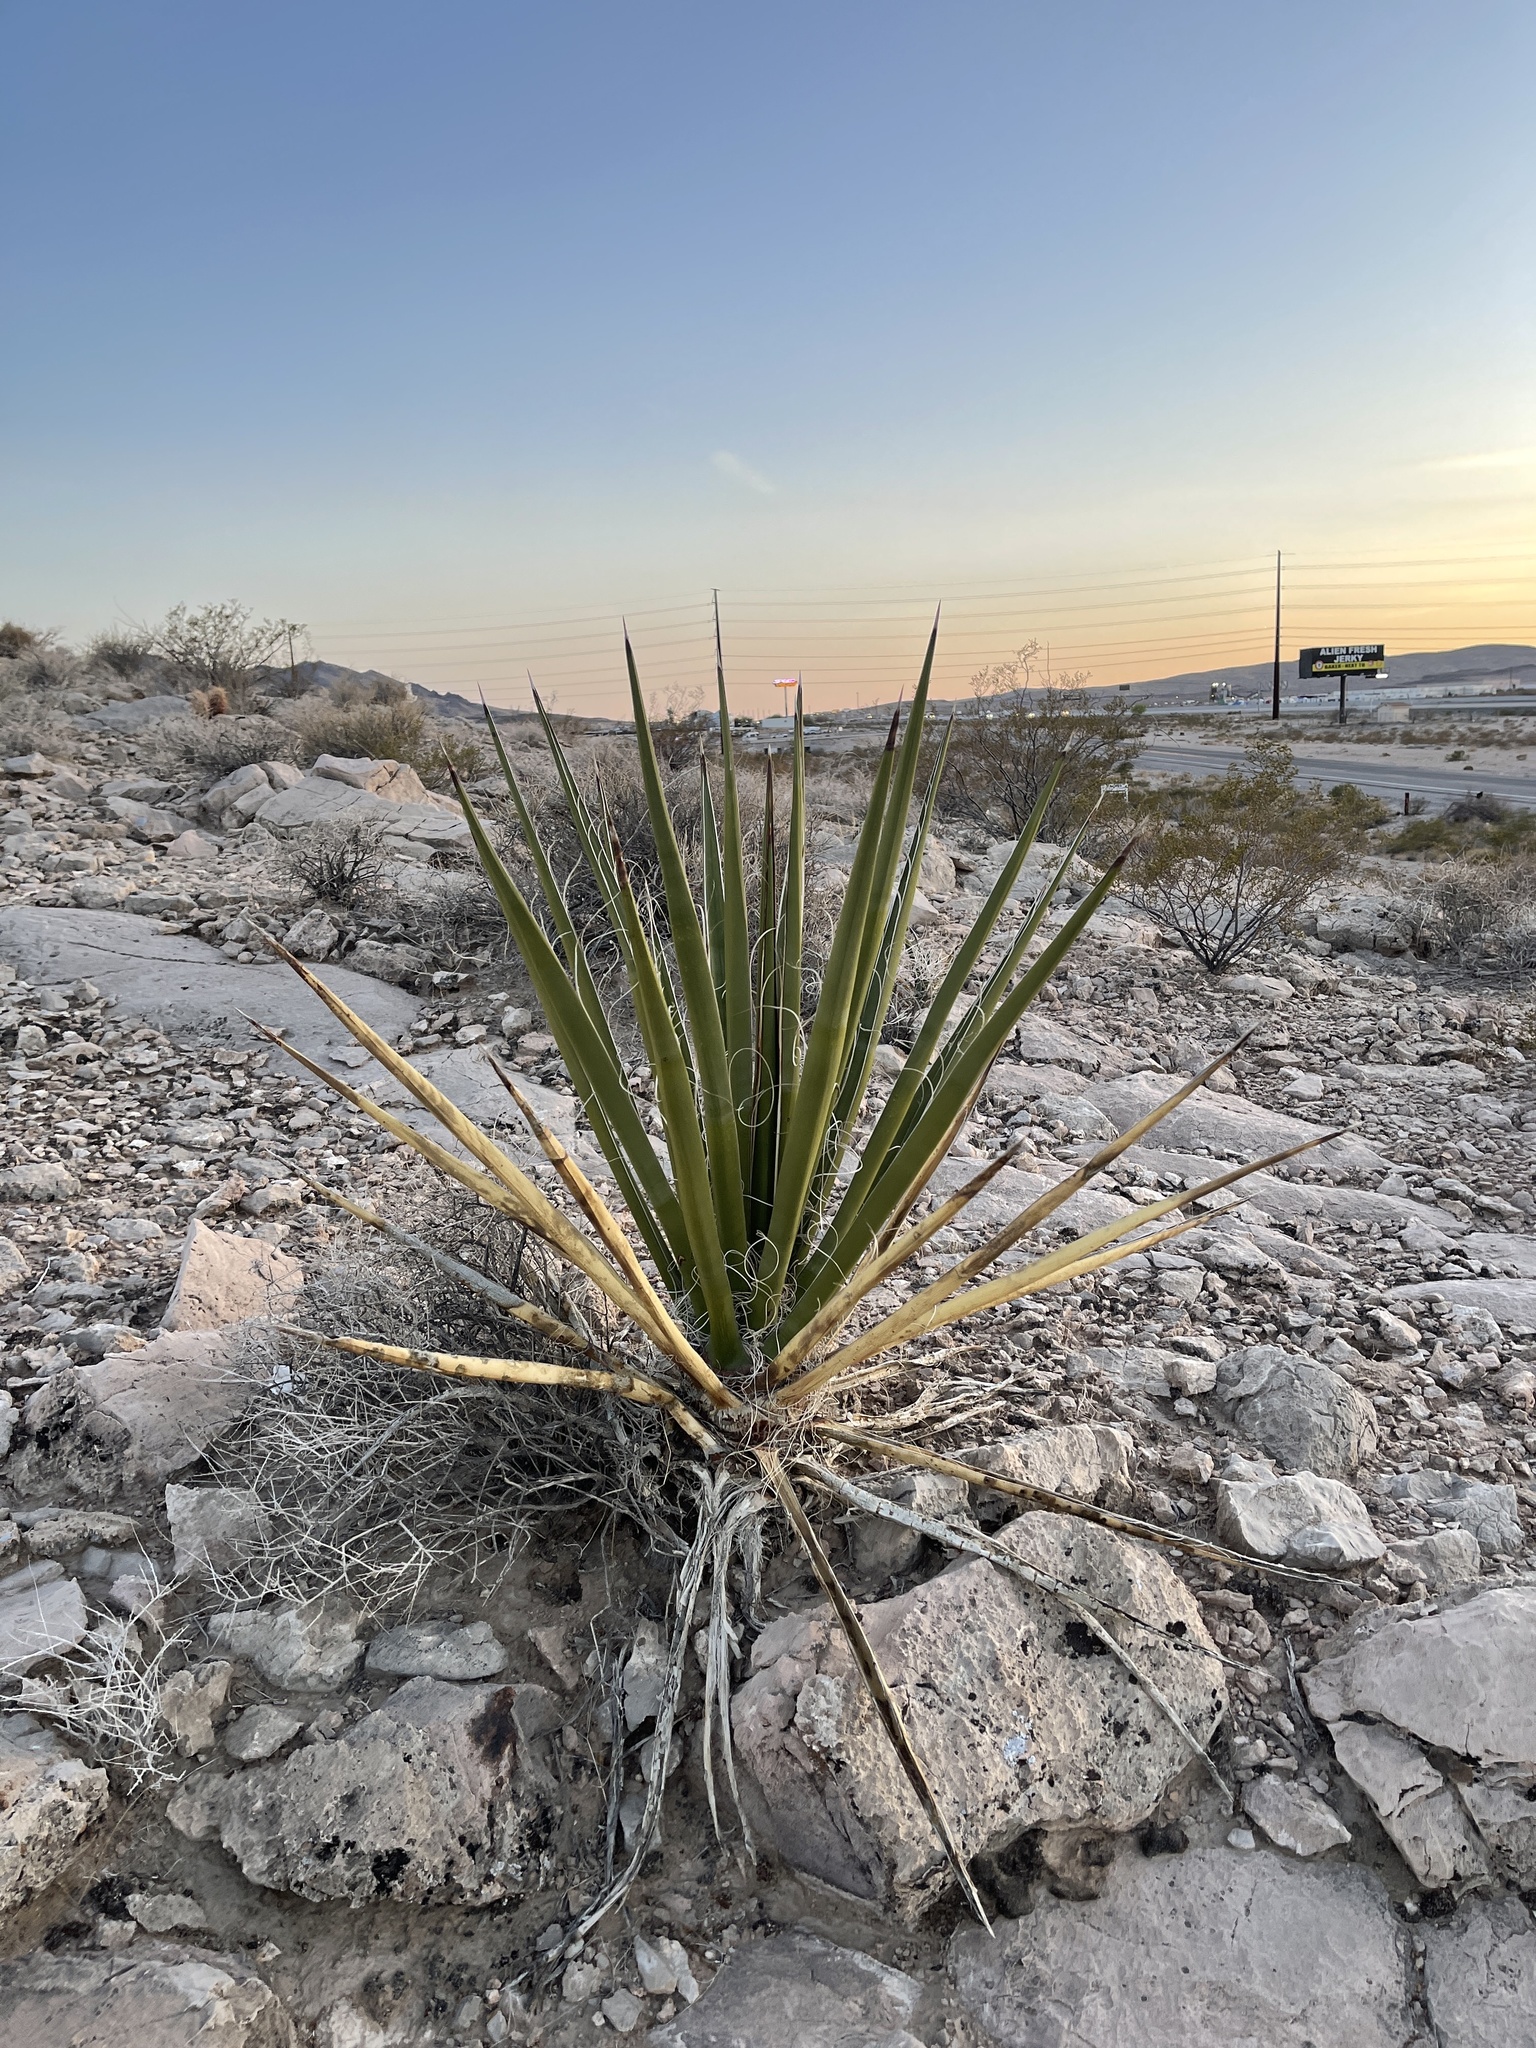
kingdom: Plantae
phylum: Tracheophyta
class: Liliopsida
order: Asparagales
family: Asparagaceae
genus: Yucca
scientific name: Yucca schidigera
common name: Mojave yucca
